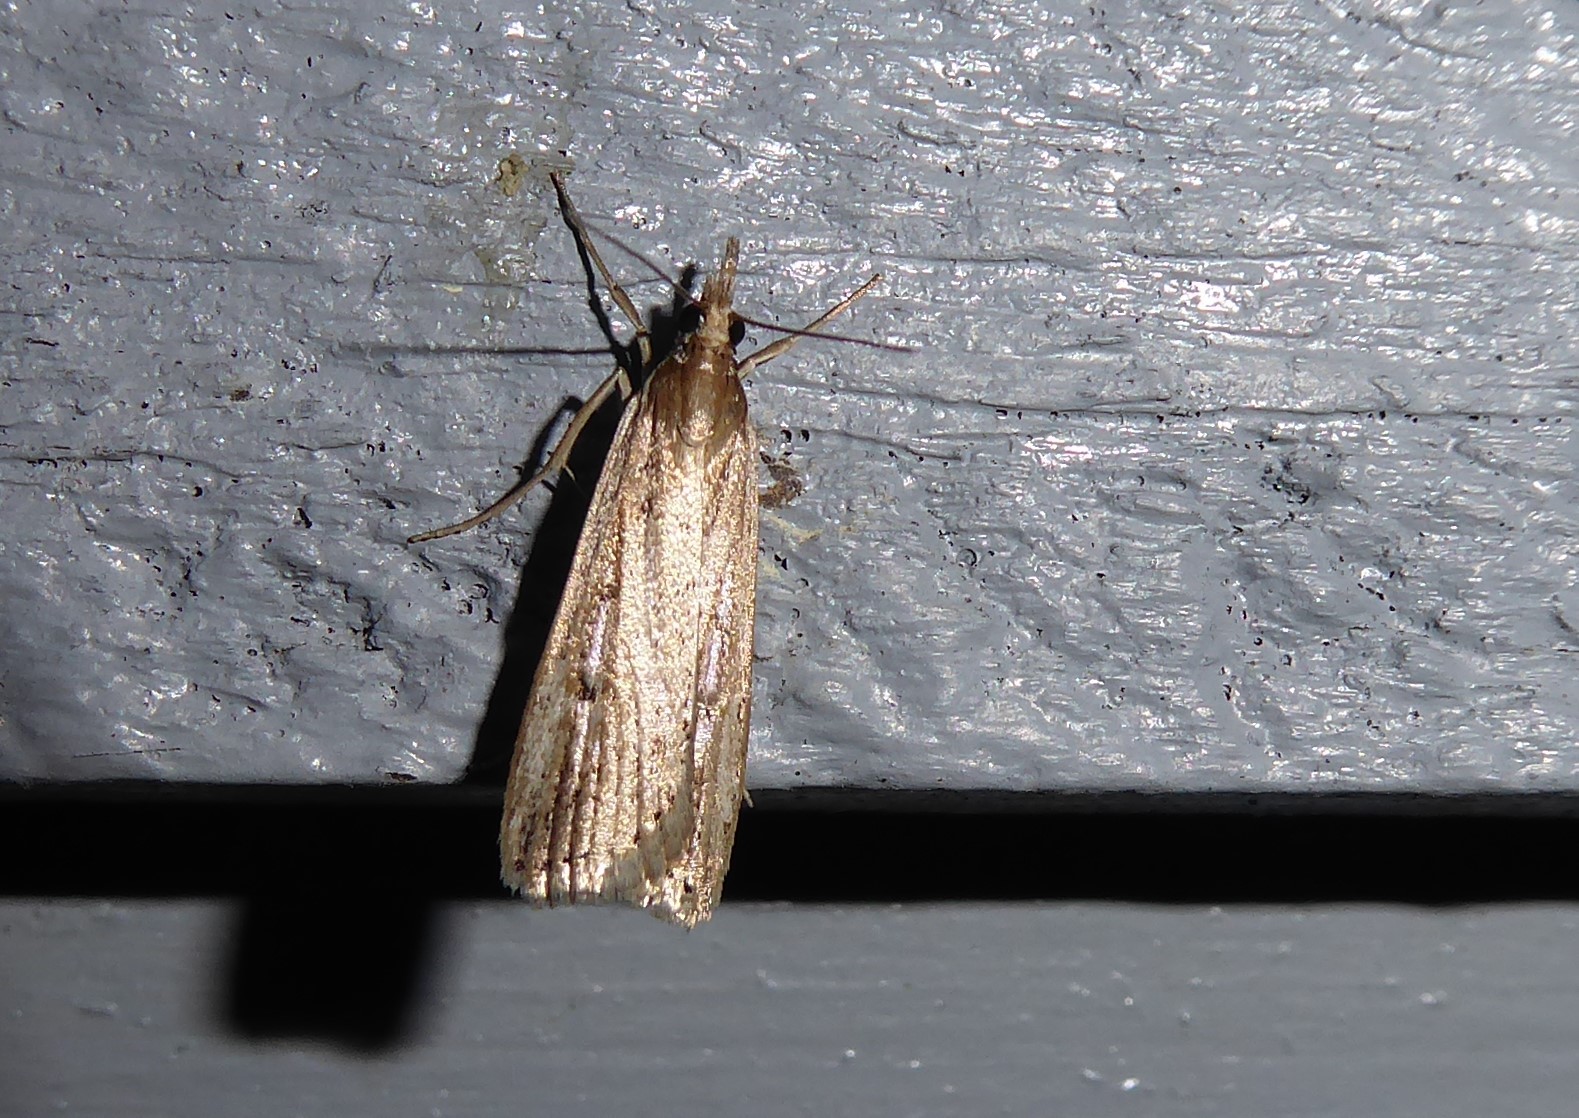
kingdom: Animalia
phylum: Arthropoda
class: Insecta
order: Lepidoptera
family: Crambidae
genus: Eudonia
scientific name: Eudonia sabulosella
